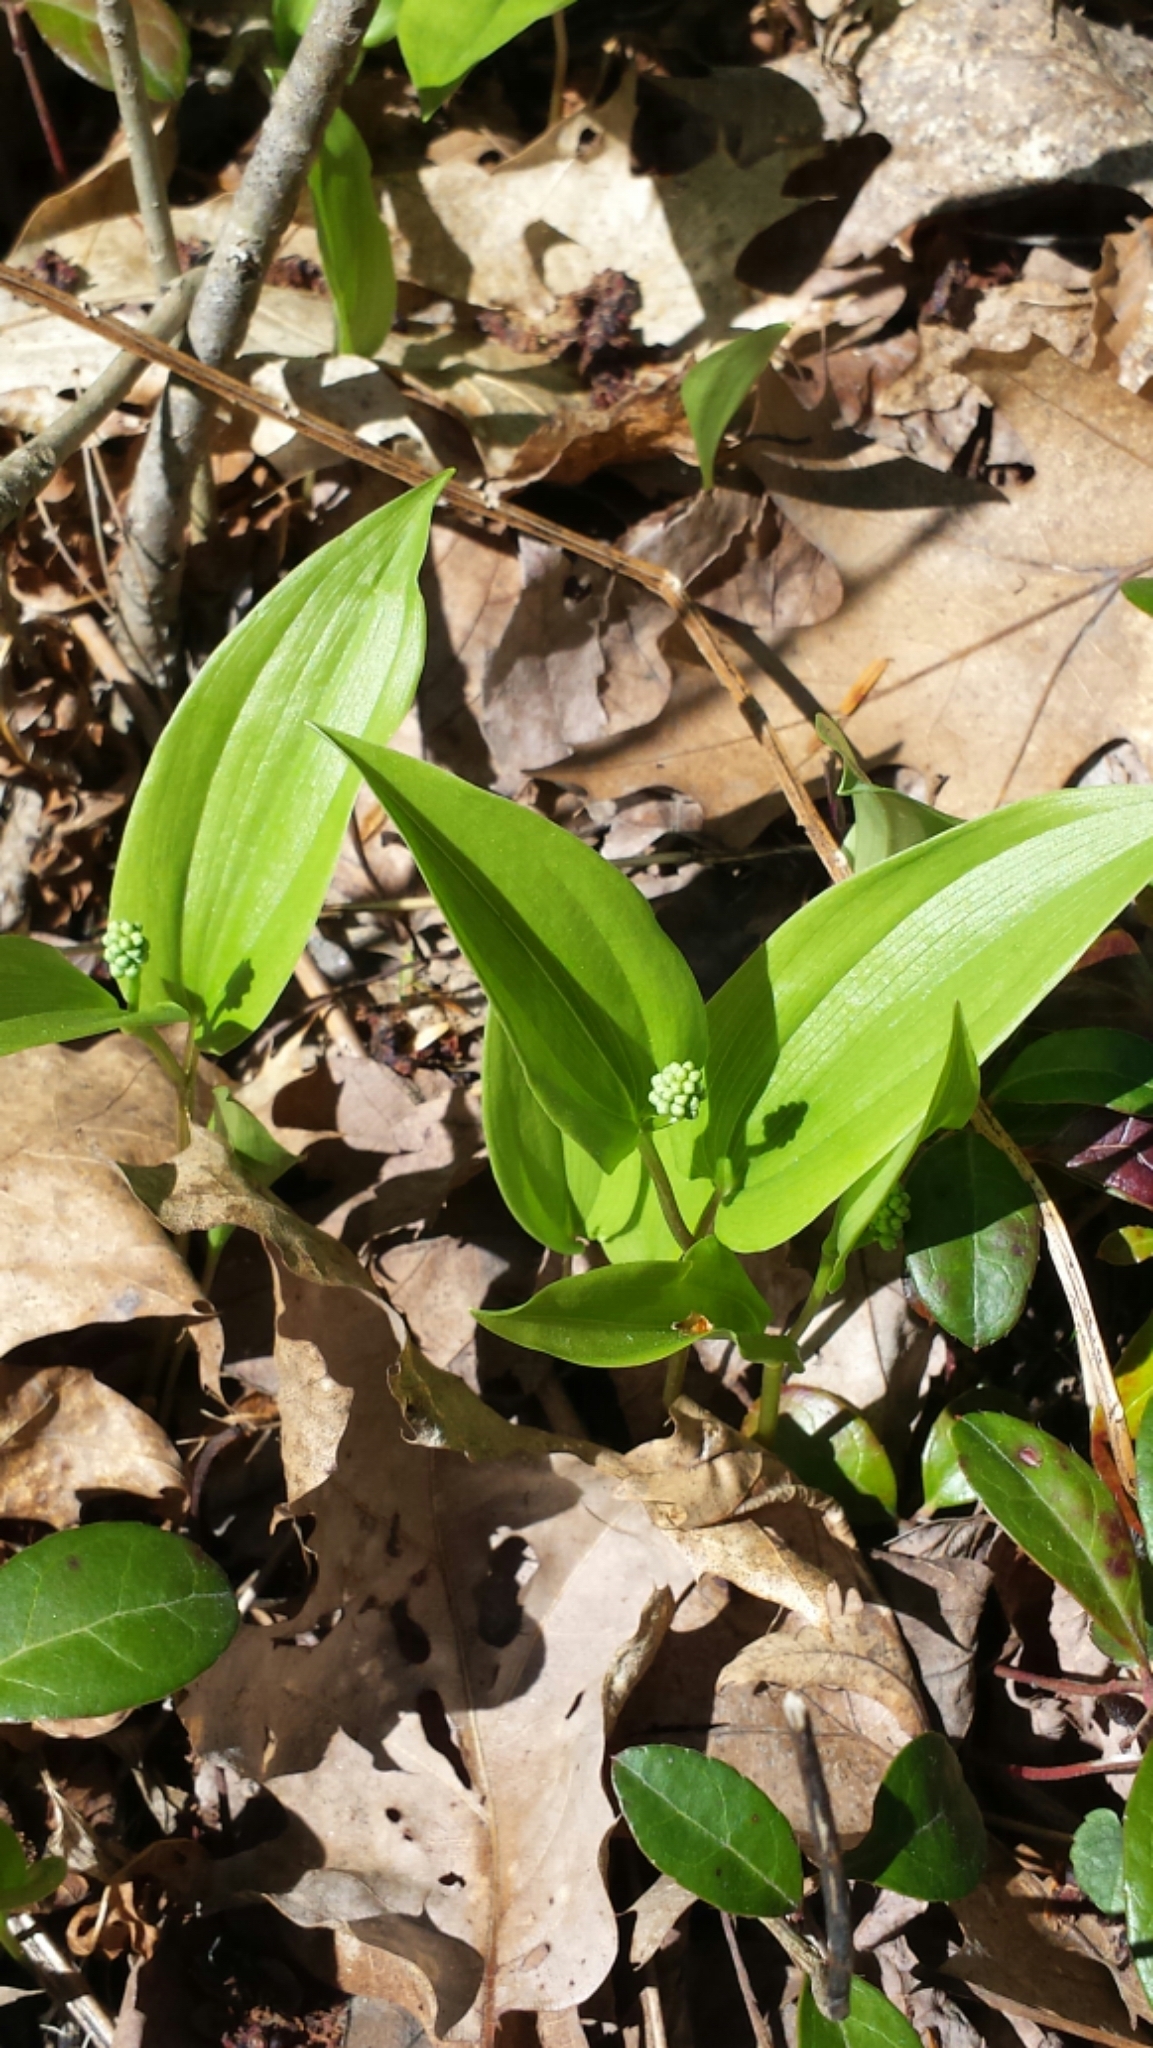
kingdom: Plantae
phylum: Tracheophyta
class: Liliopsida
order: Asparagales
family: Asparagaceae
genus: Maianthemum
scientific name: Maianthemum canadense
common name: False lily-of-the-valley
